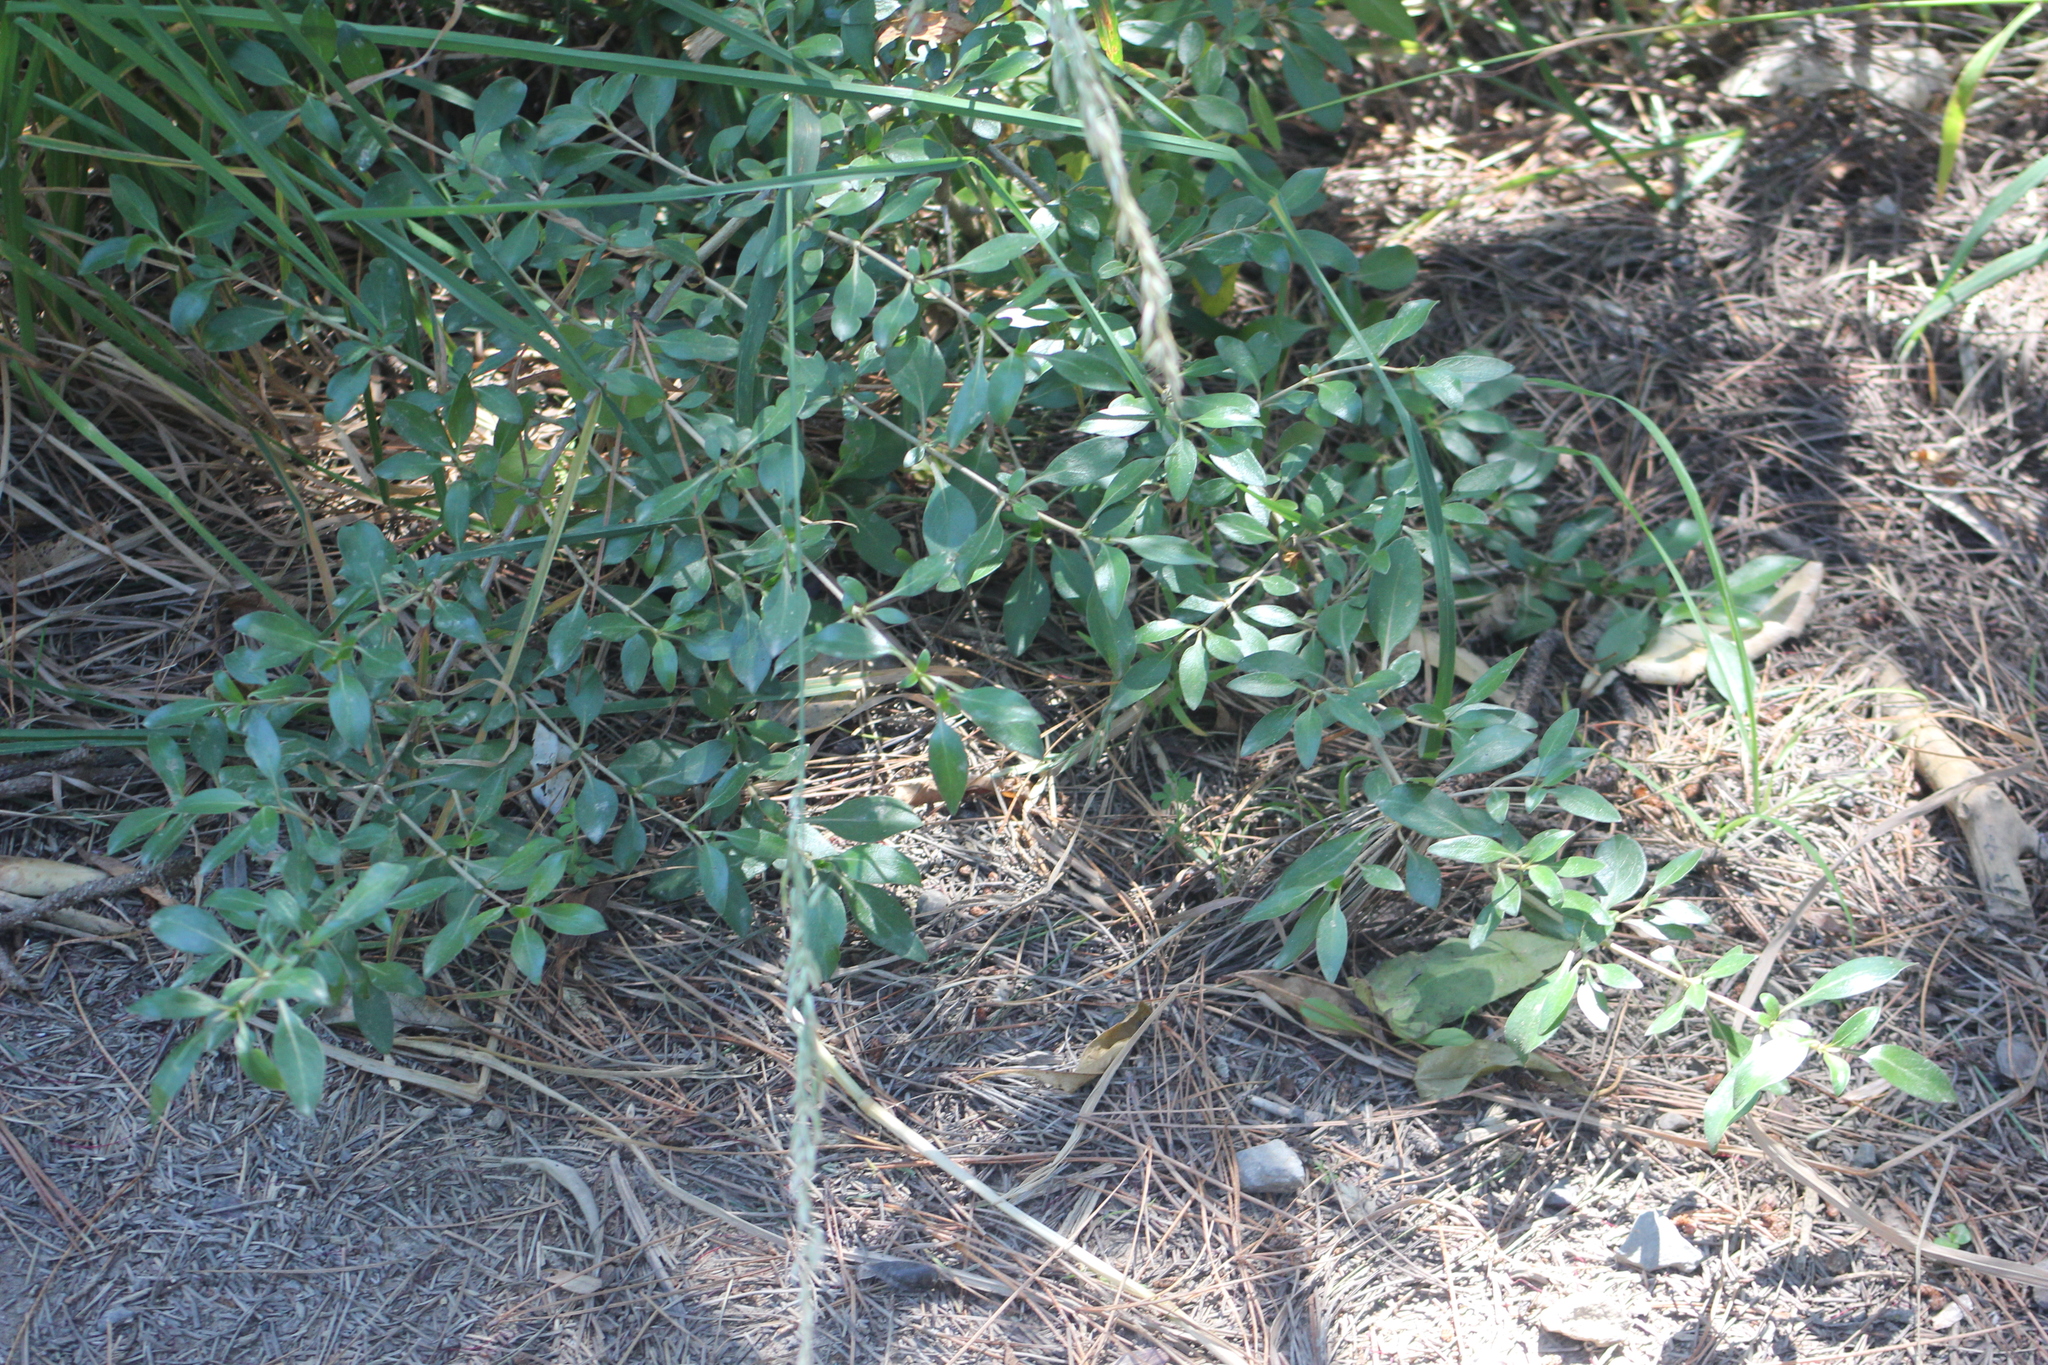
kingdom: Plantae
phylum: Tracheophyta
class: Magnoliopsida
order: Gentianales
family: Rubiaceae
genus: Coprosma
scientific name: Coprosma cunninghamii
